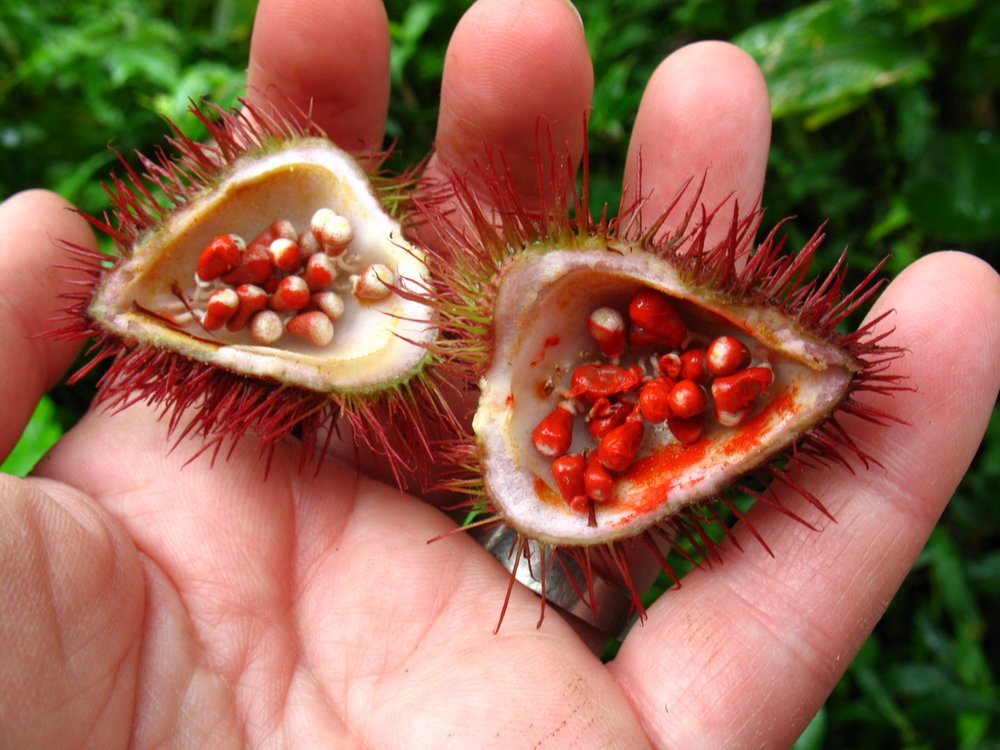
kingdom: Plantae
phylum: Tracheophyta
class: Magnoliopsida
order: Malvales
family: Bixaceae
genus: Bixa
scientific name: Bixa orellana
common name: Lipsticktree
